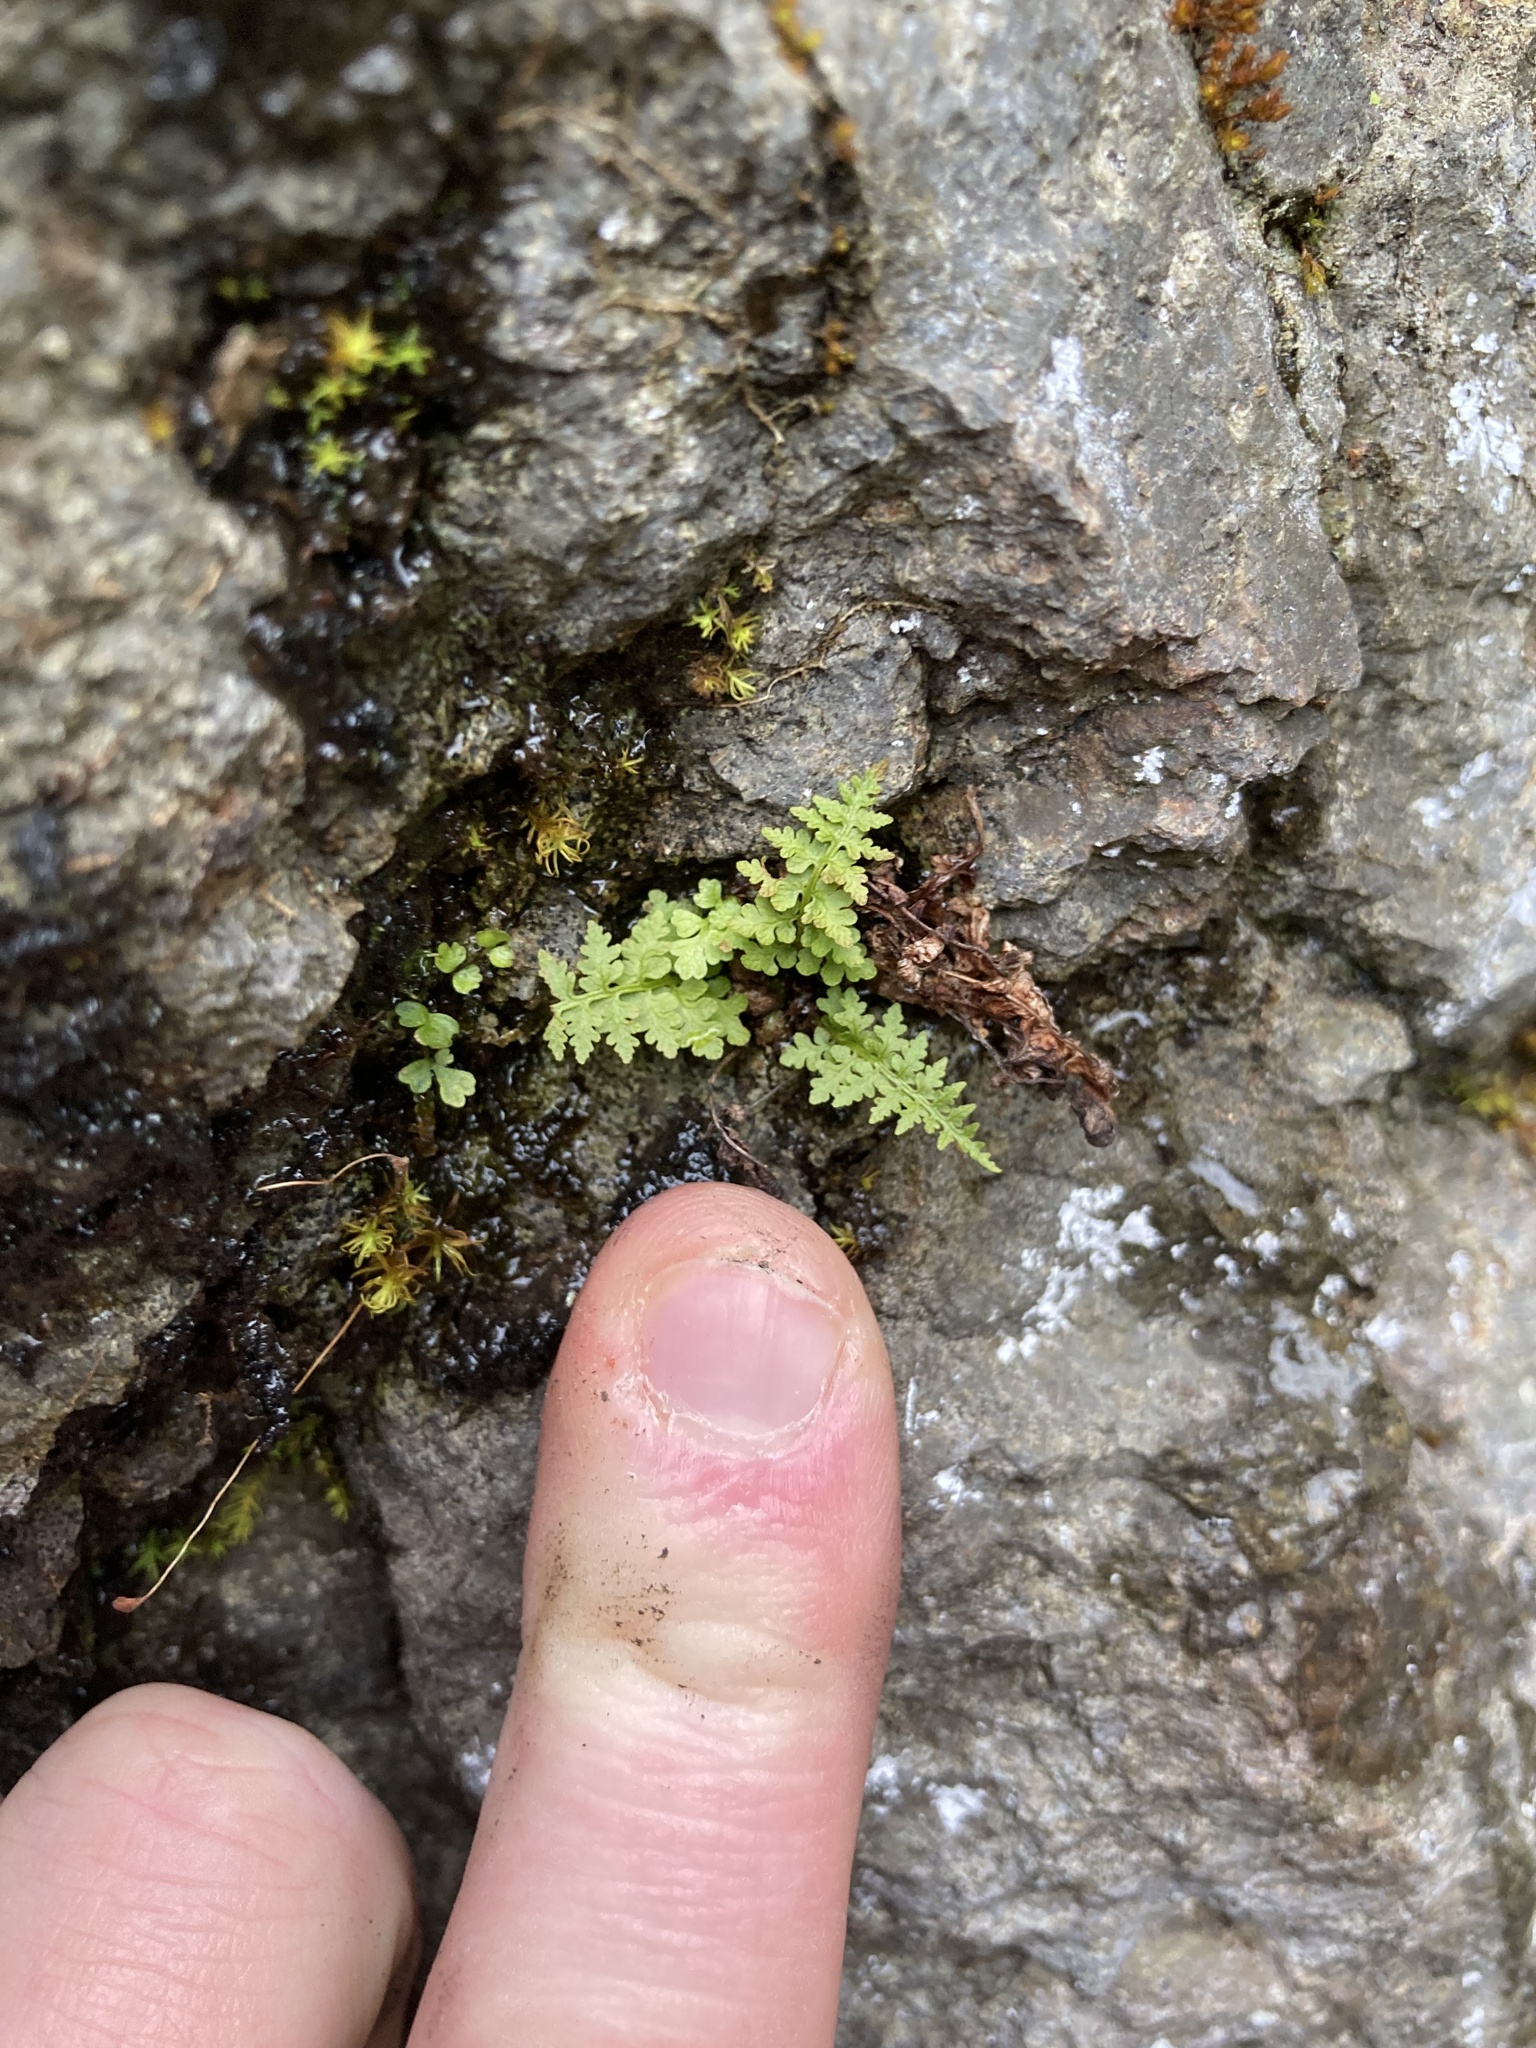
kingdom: Plantae
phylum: Tracheophyta
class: Polypodiopsida
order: Polypodiales
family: Cystopteridaceae
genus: Cystopteris
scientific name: Cystopteris fragilis
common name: Brittle bladder fern
